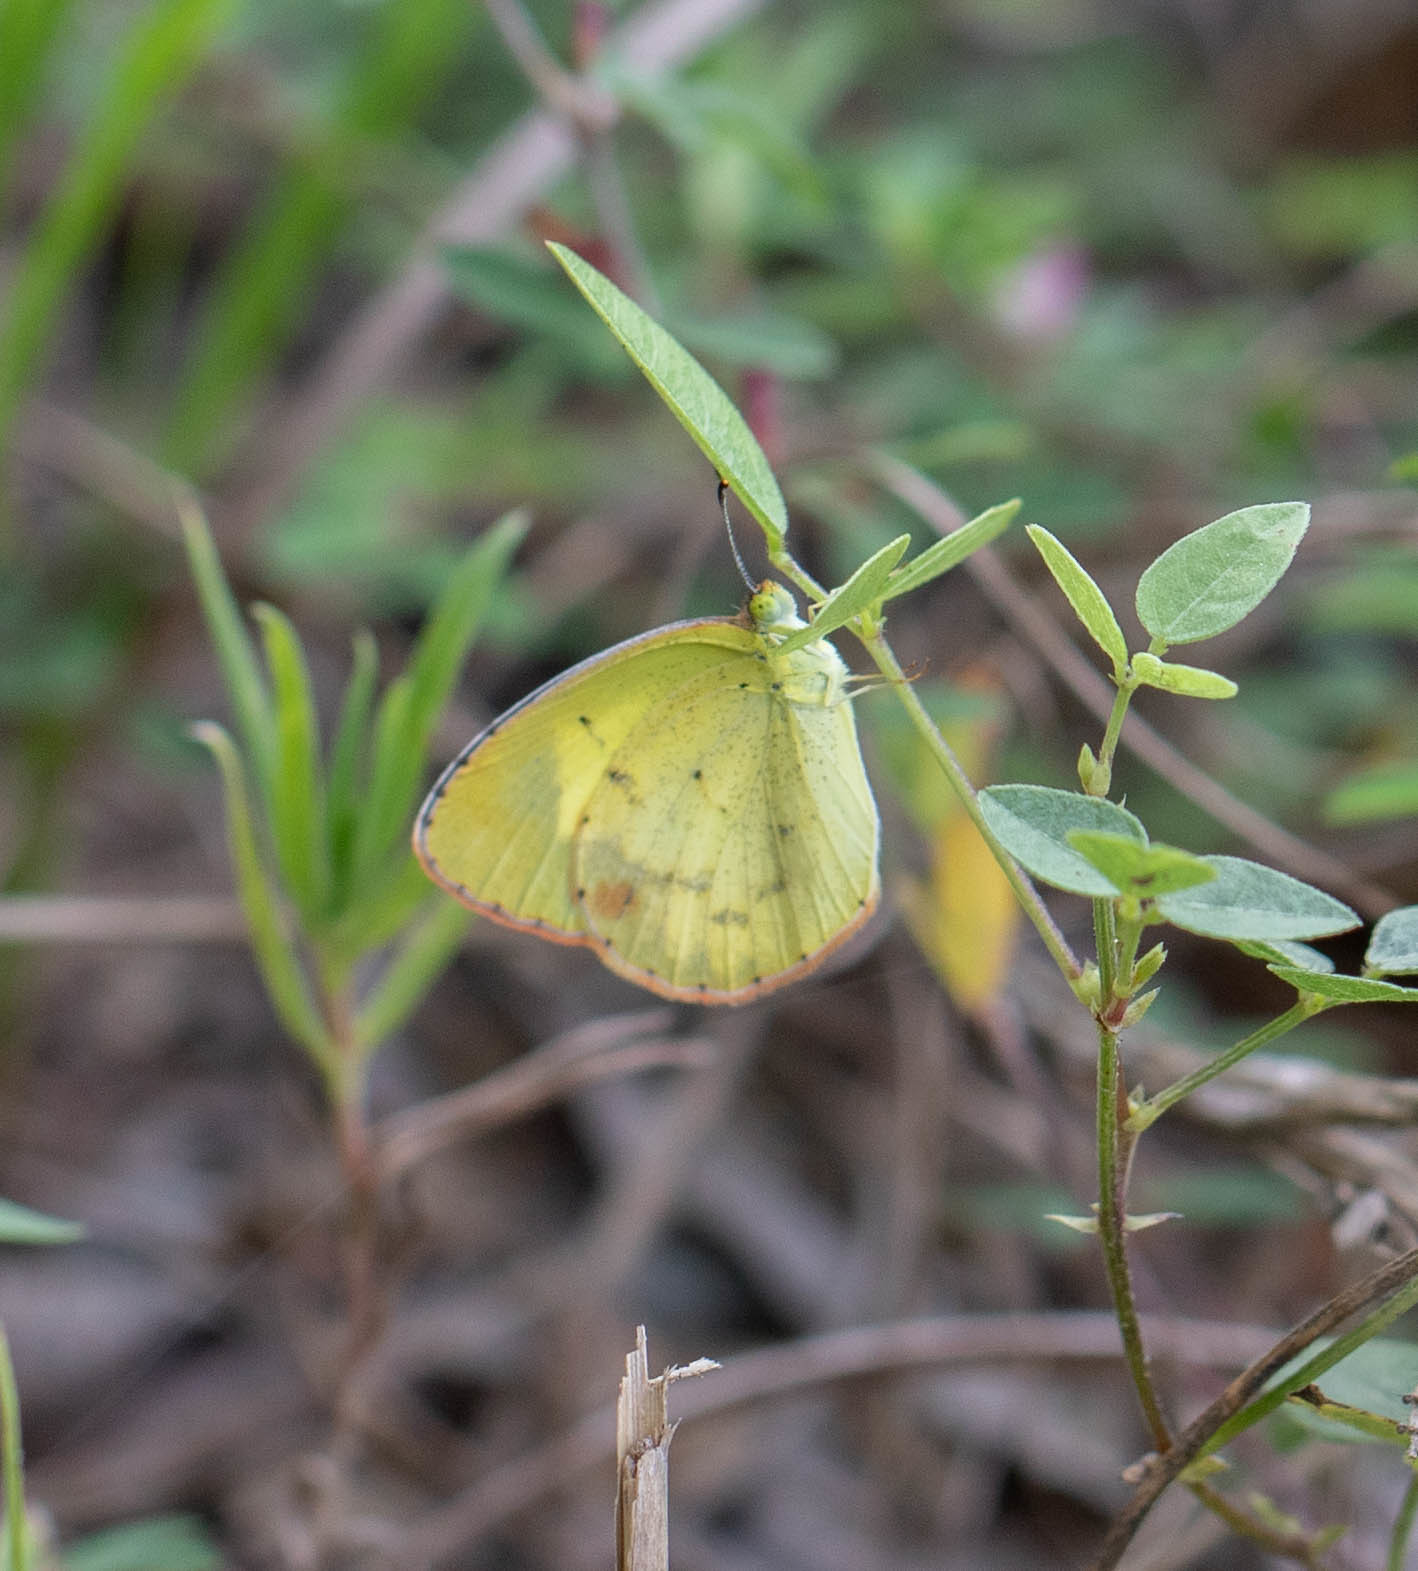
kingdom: Animalia
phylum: Arthropoda
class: Insecta
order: Lepidoptera
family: Pieridae
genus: Pyrisitia
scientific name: Pyrisitia lisa
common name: Little yellow
